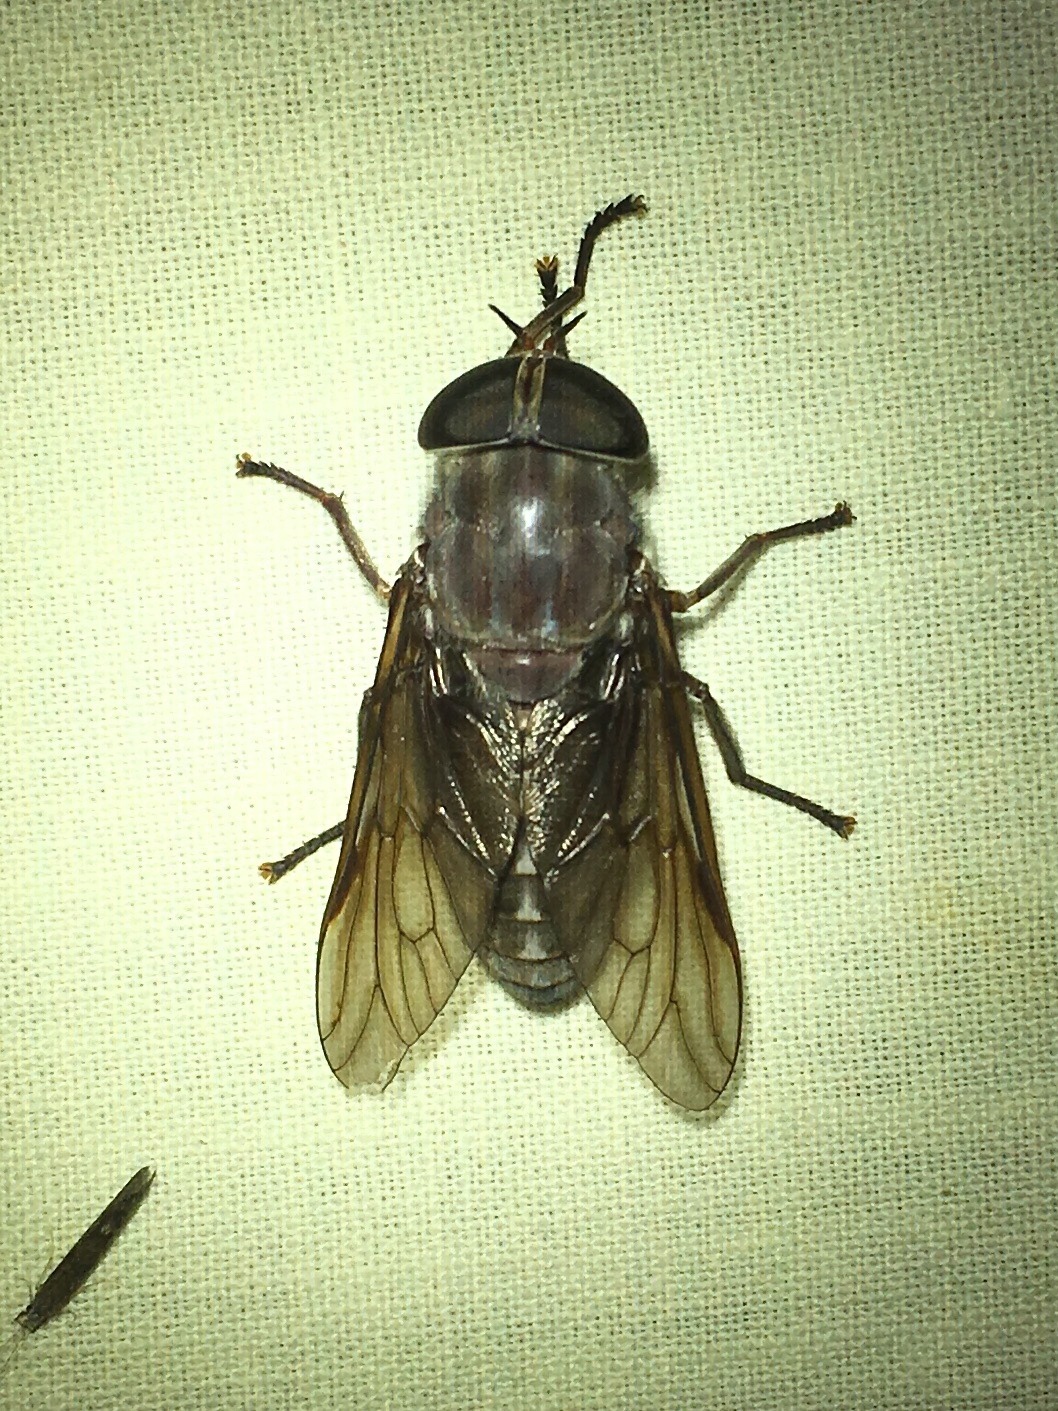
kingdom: Animalia
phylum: Arthropoda
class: Insecta
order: Diptera
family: Tabanidae
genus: Tabanus
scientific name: Tabanus catenatus
